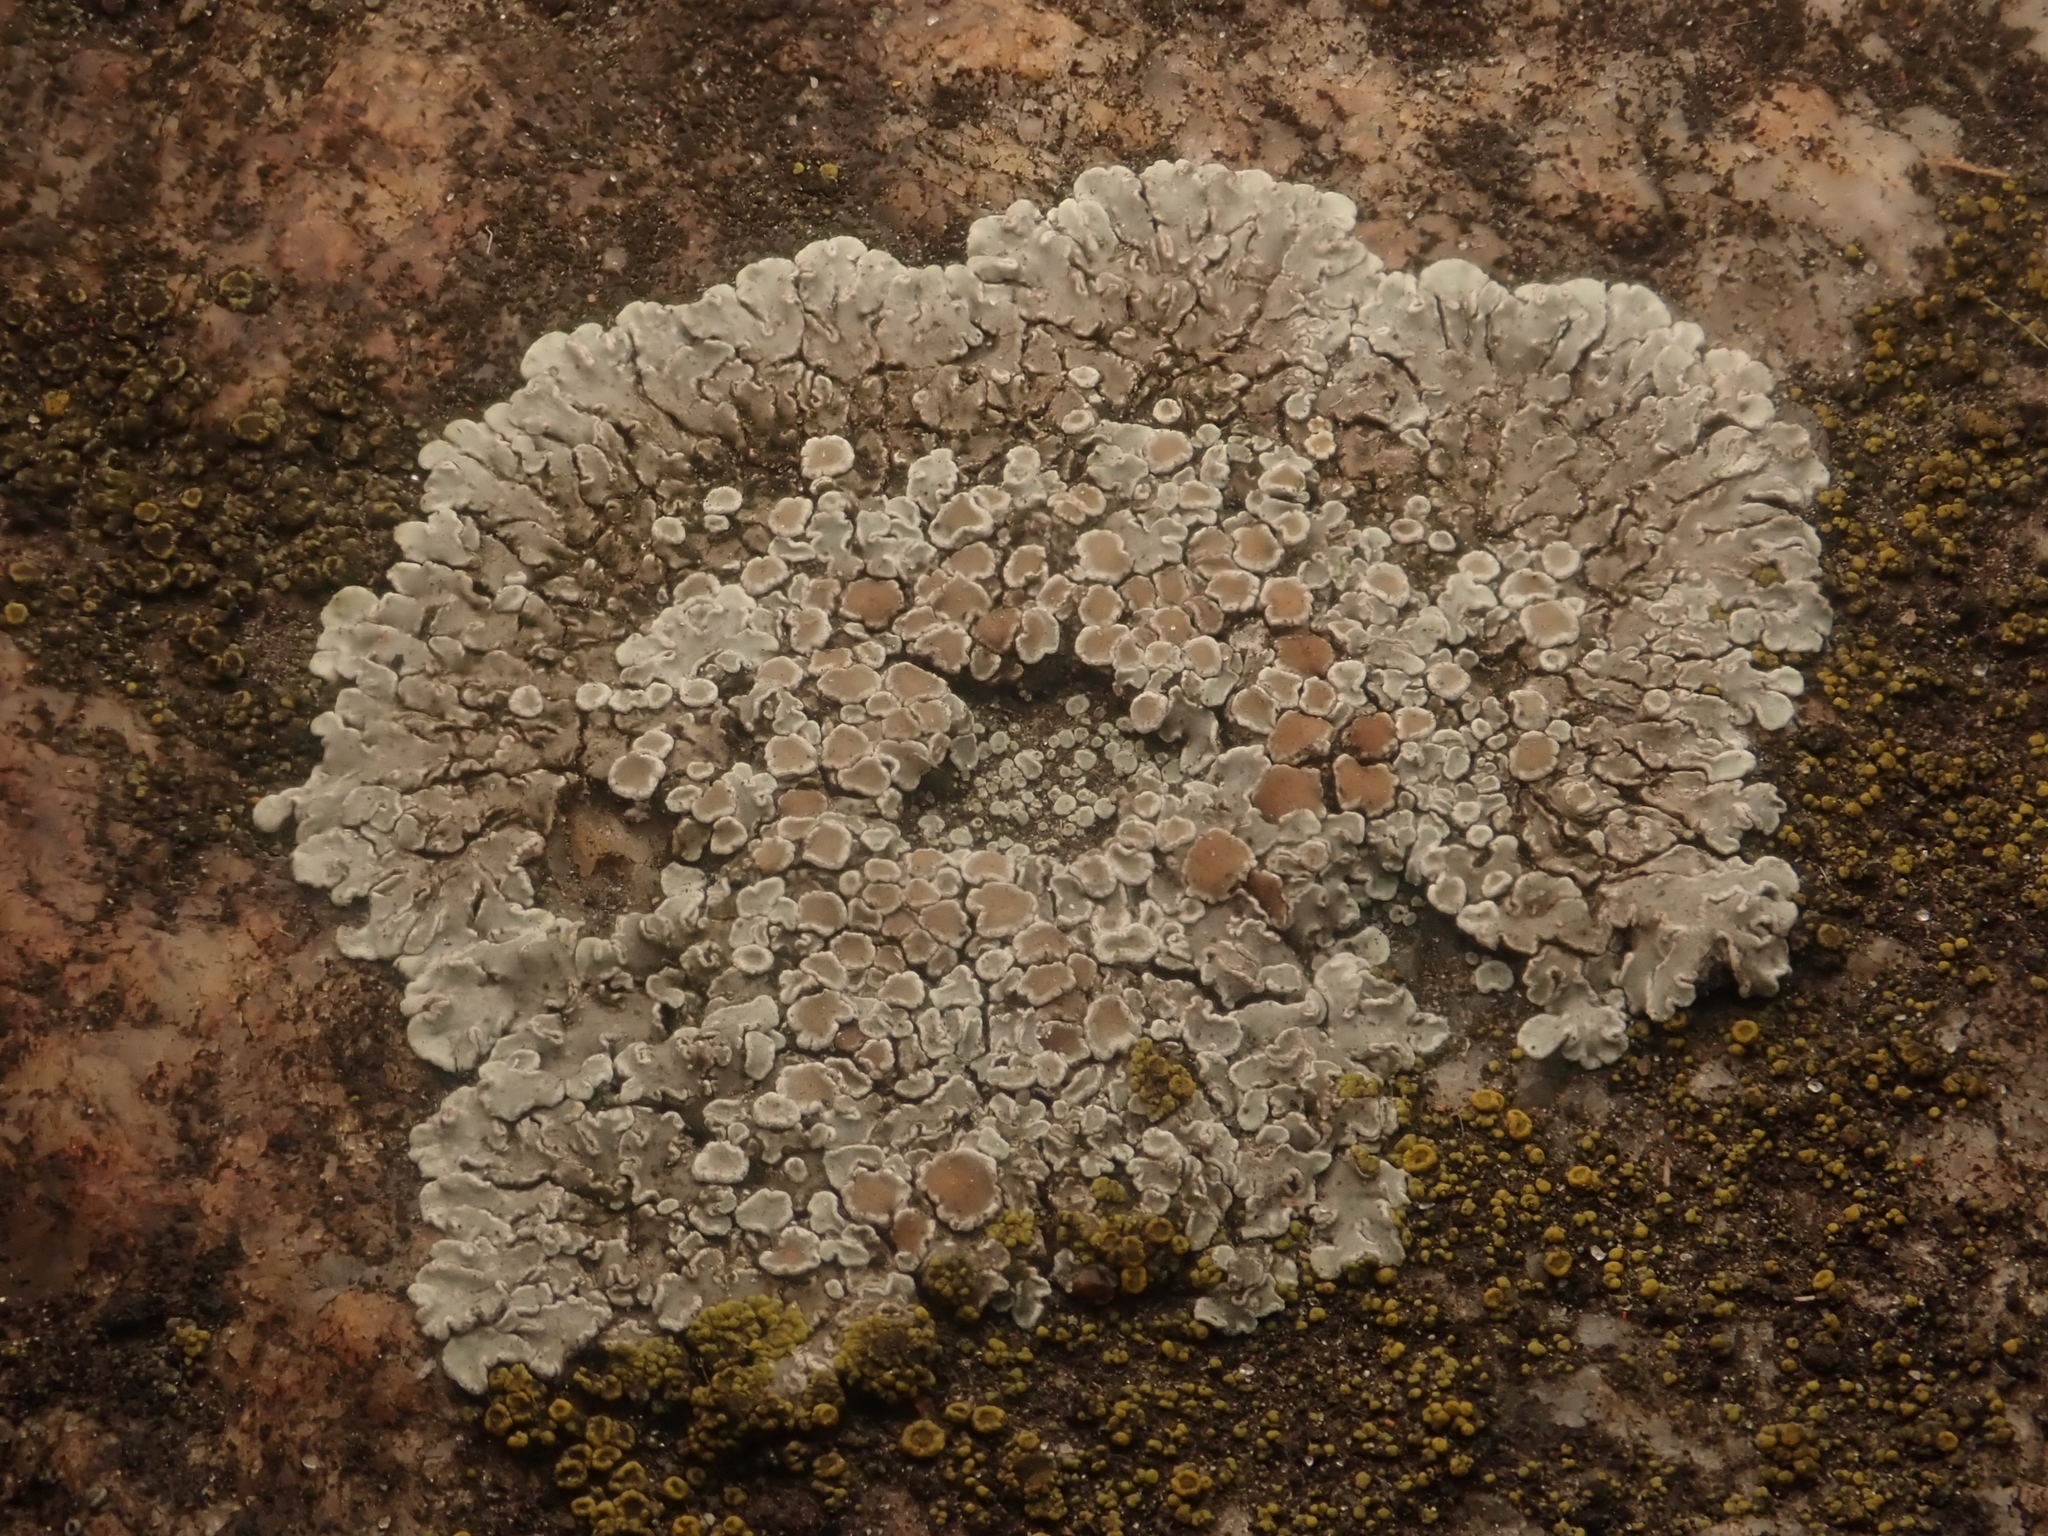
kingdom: Fungi
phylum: Ascomycota
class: Lecanoromycetes
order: Lecanorales
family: Lecanoraceae
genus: Protoparmeliopsis
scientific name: Protoparmeliopsis muralis
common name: Stonewall rim lichen
